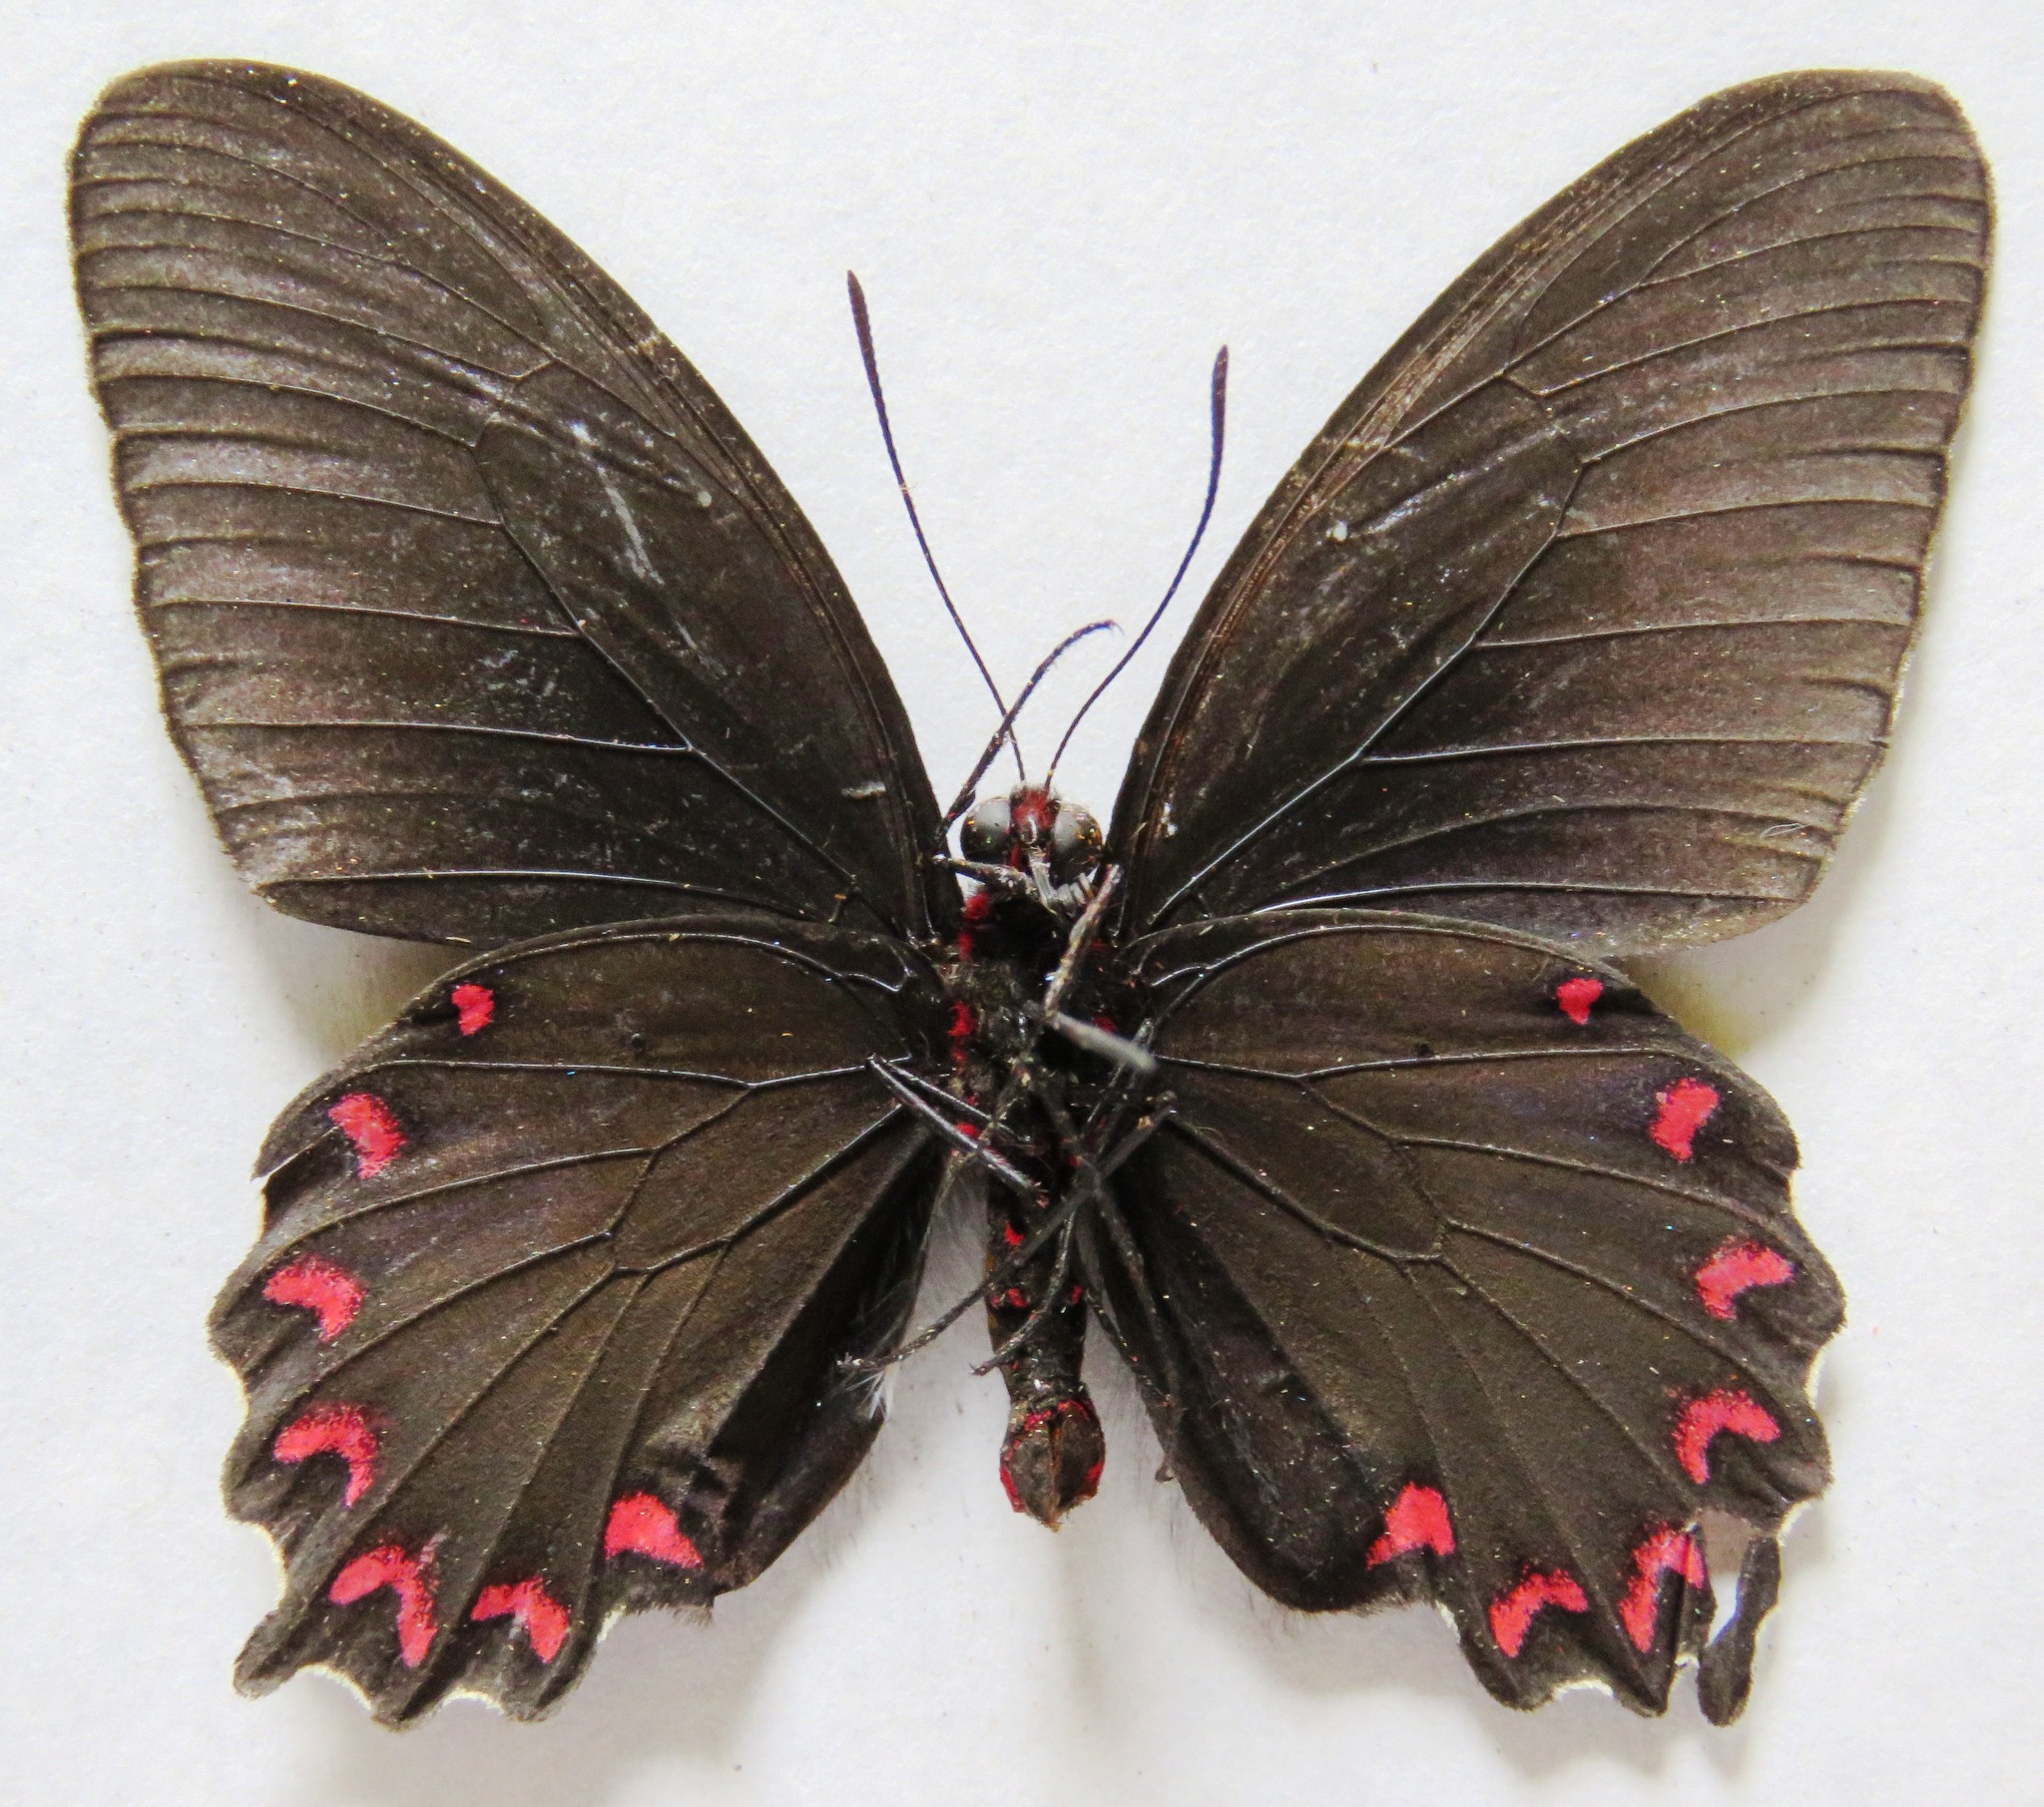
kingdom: Animalia
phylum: Arthropoda
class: Insecta
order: Lepidoptera
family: Papilionidae
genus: Parides
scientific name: Parides montezuma
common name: Montezuma's cattleheart
